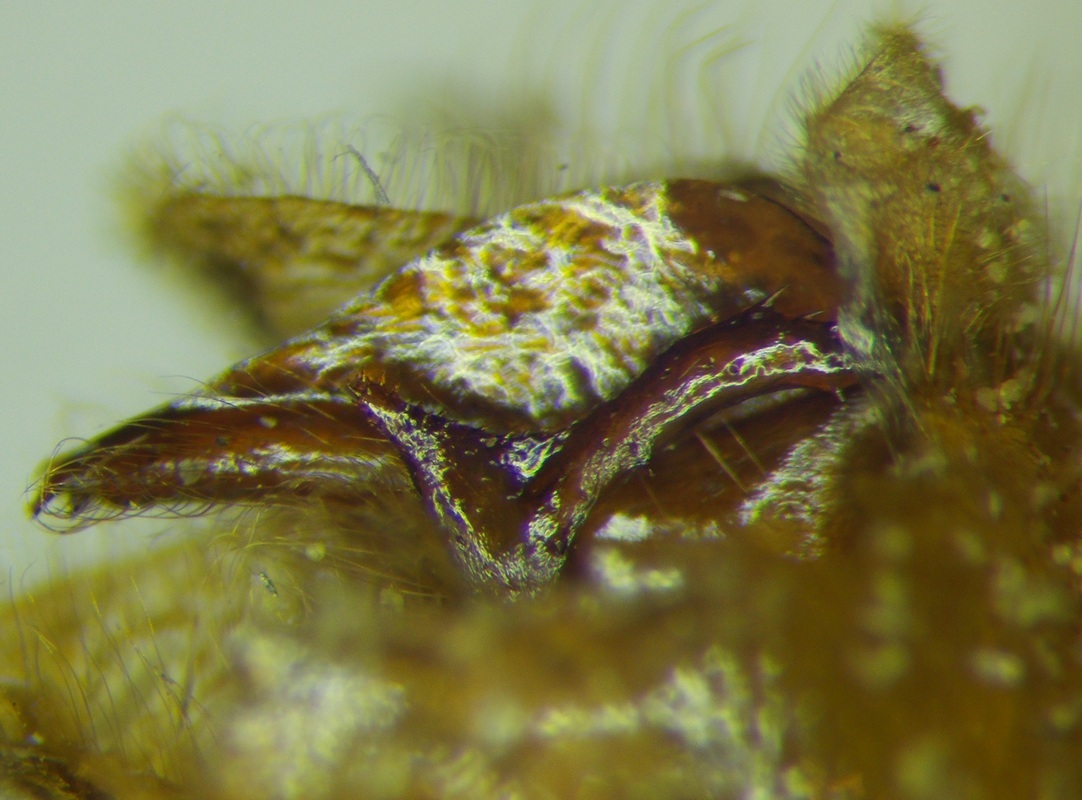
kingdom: Animalia
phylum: Arthropoda
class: Insecta
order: Hymenoptera
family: Formicidae
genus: Labidus
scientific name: Labidus coecus
